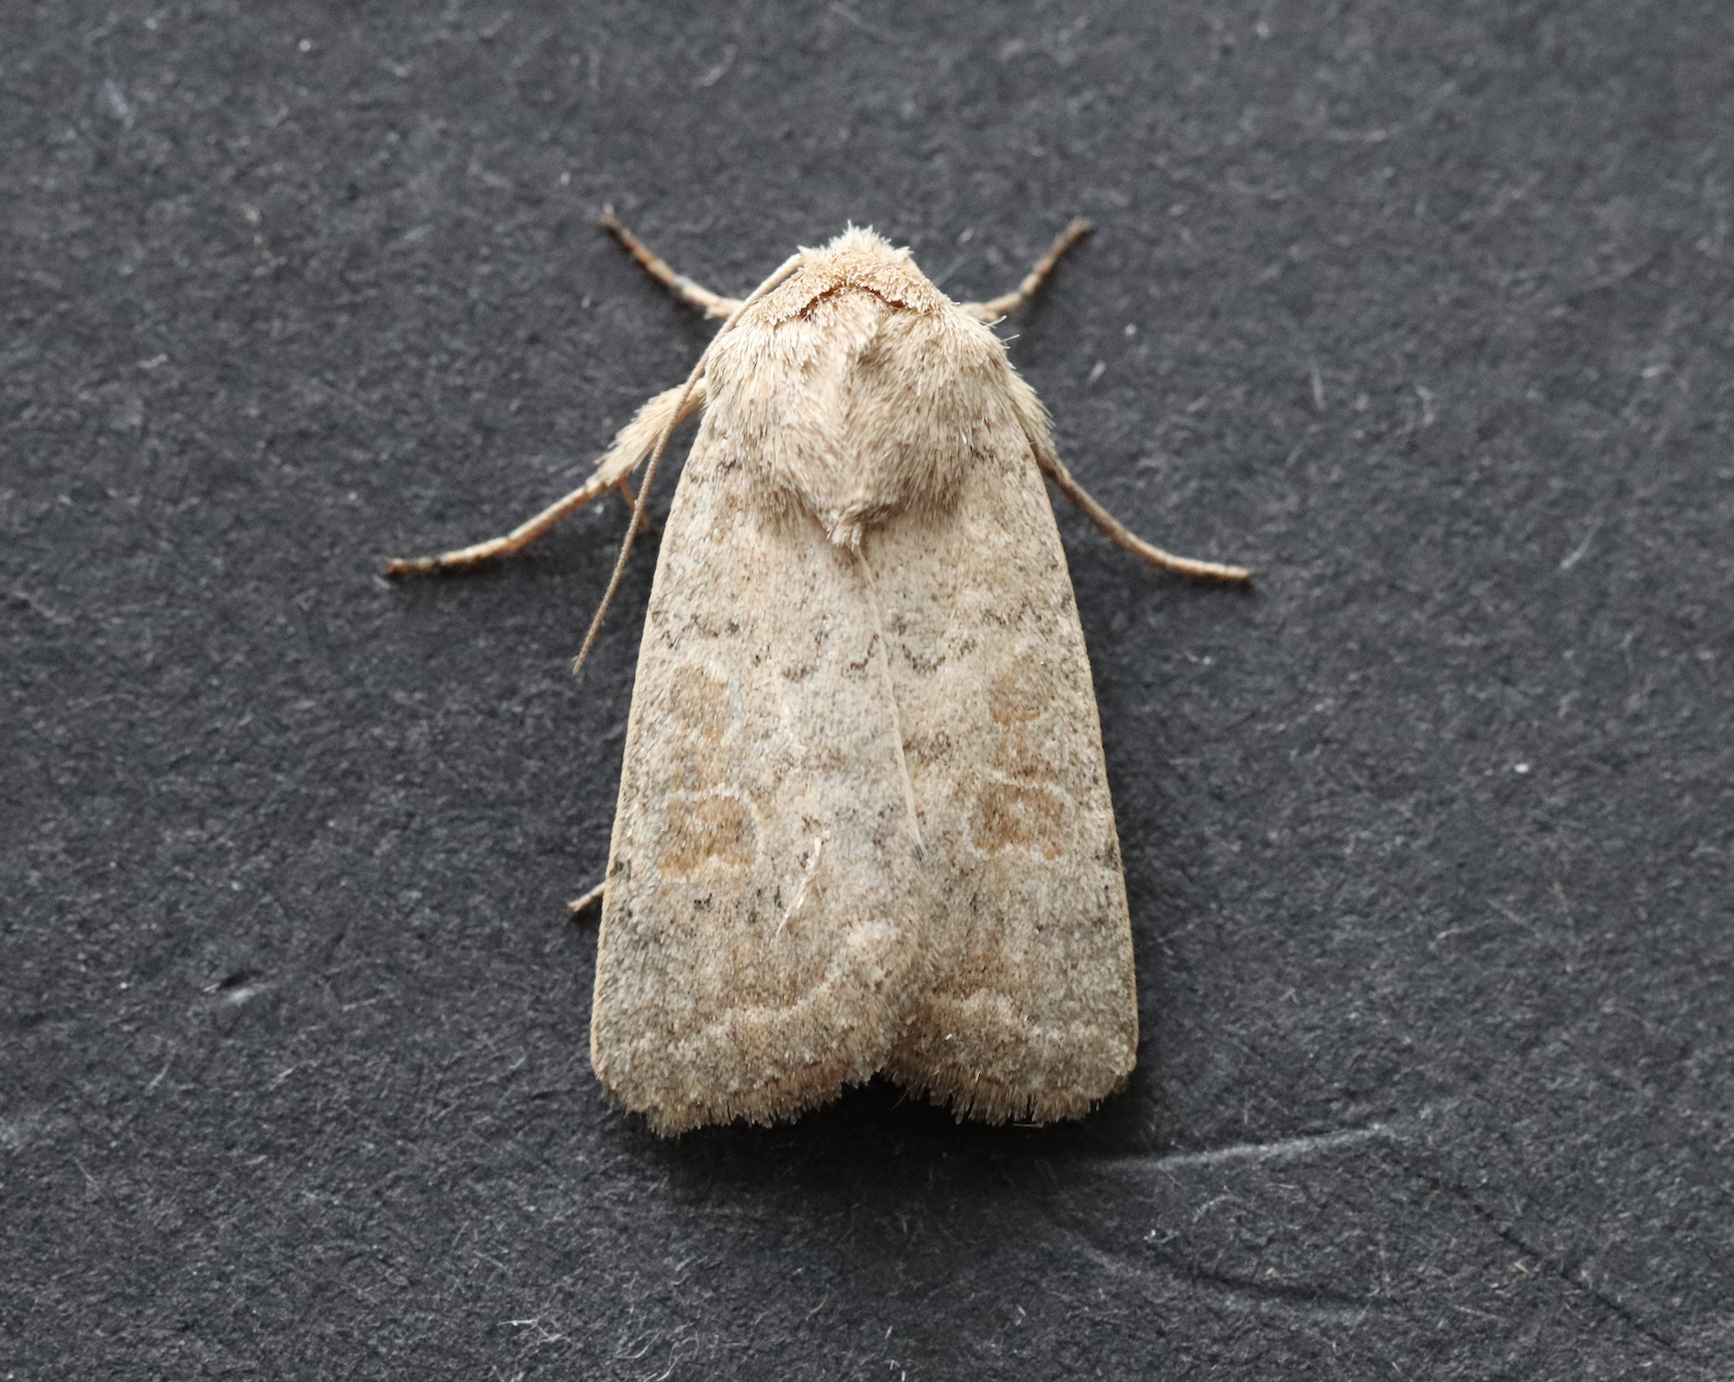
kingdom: Animalia
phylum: Arthropoda
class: Insecta
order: Lepidoptera
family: Noctuidae
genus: Hoplodrina
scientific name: Hoplodrina ambigua
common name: Vine's rustic
